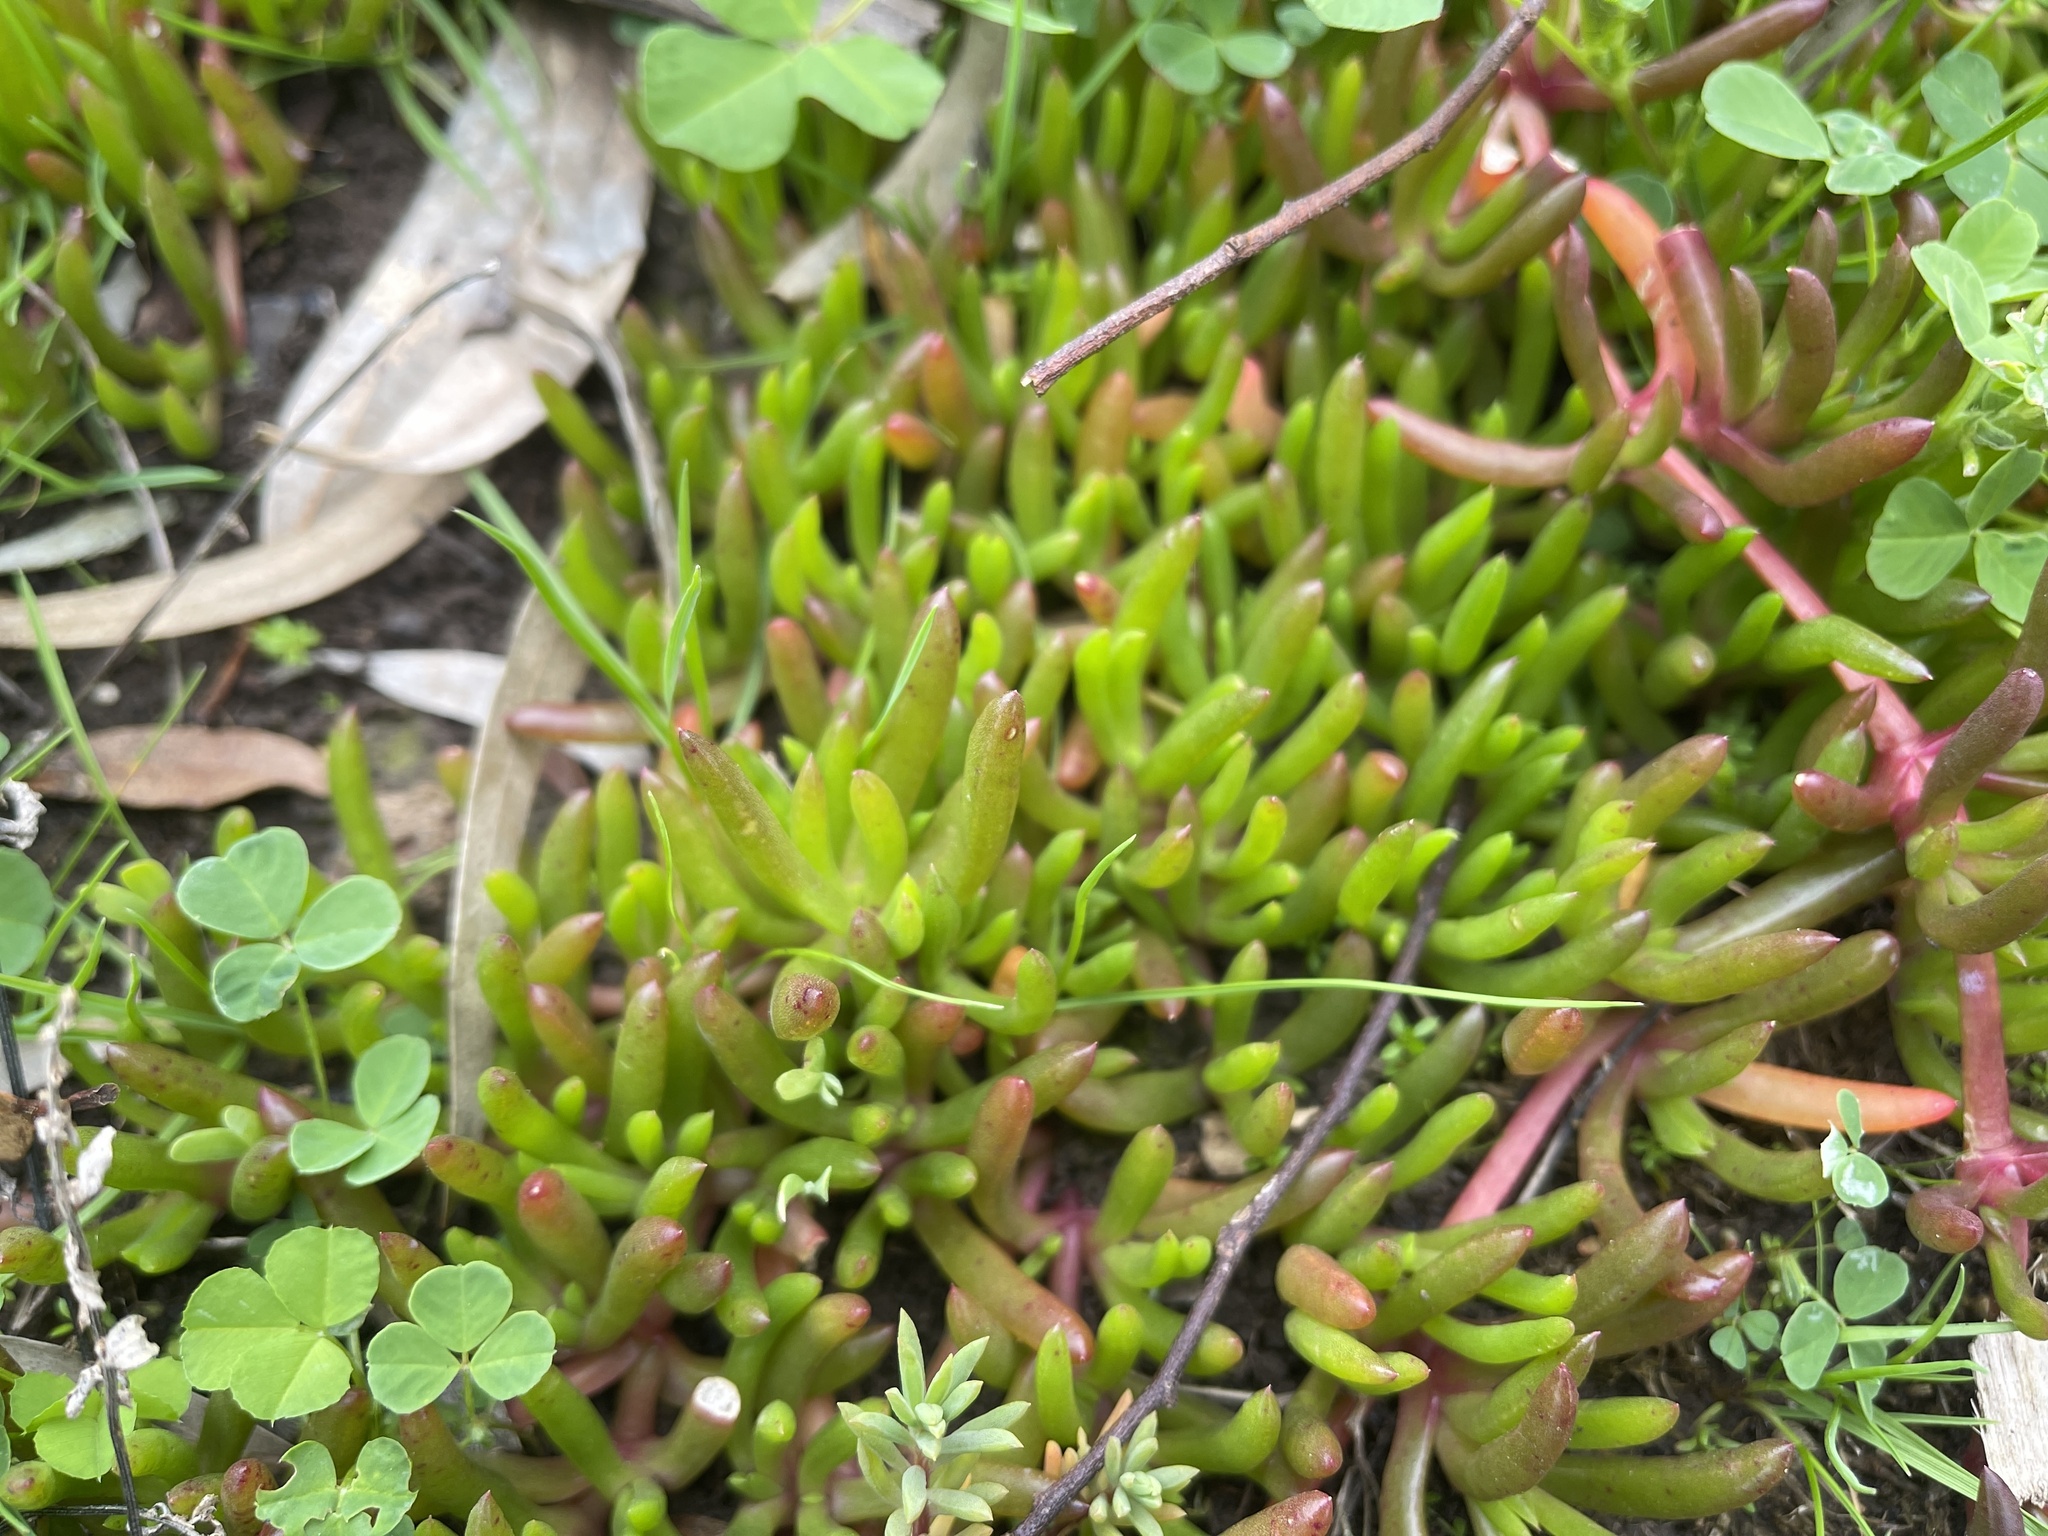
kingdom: Plantae
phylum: Tracheophyta
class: Magnoliopsida
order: Caryophyllales
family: Aizoaceae
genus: Disphyma
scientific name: Disphyma crassifolium
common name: Purple dewplant
